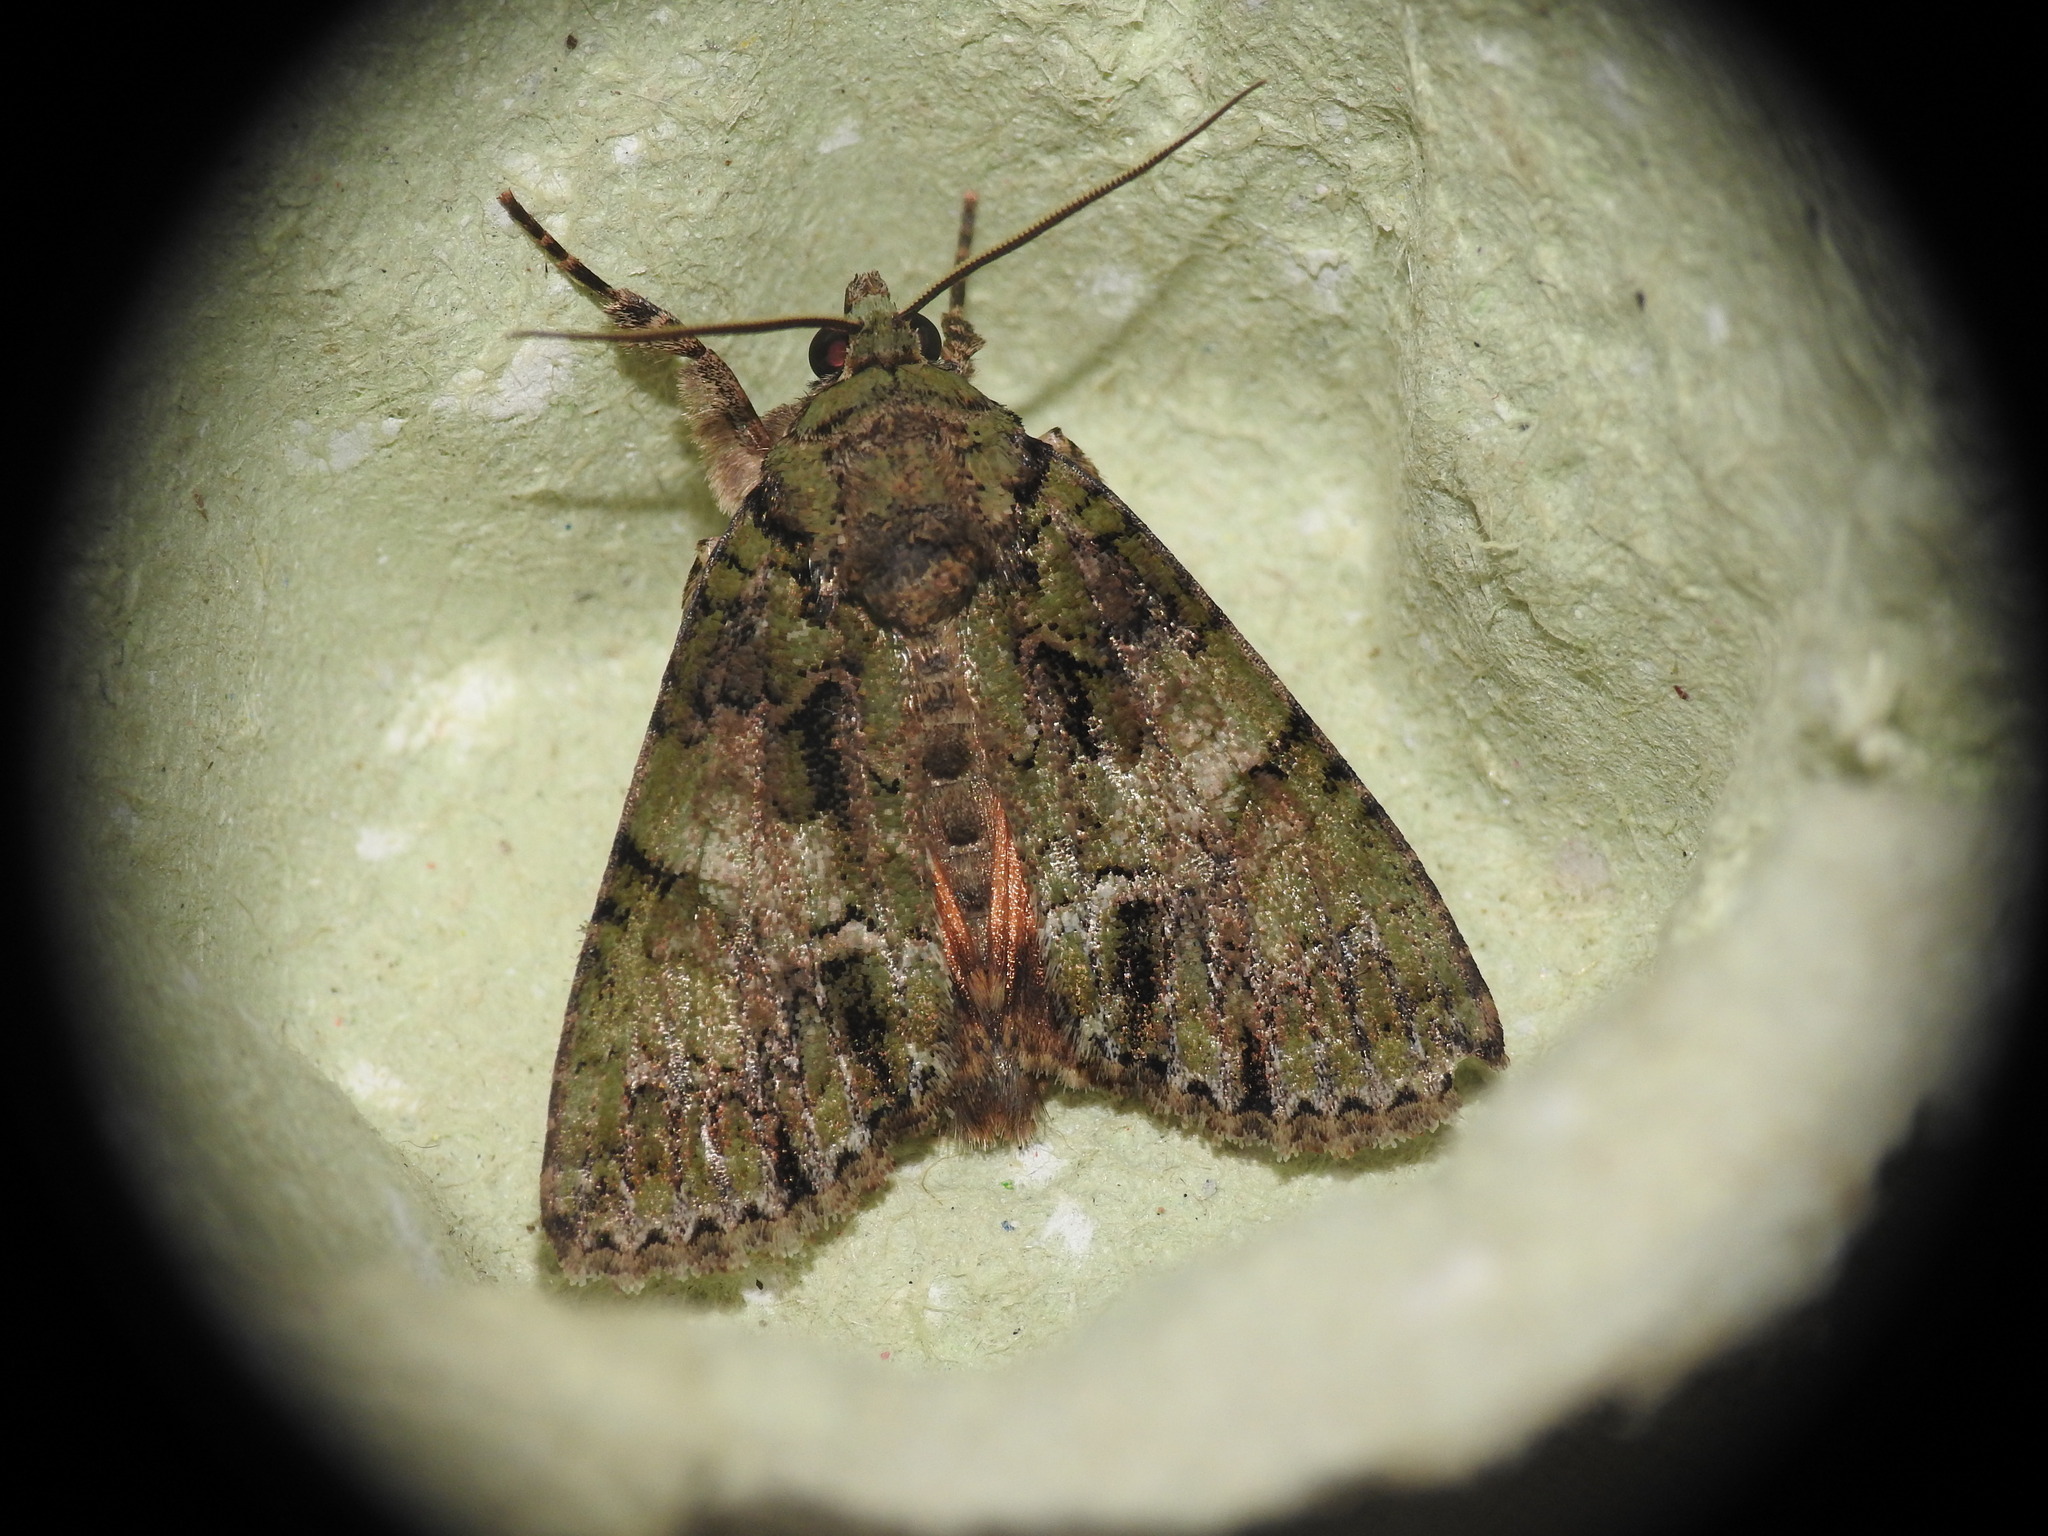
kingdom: Animalia
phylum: Arthropoda
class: Insecta
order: Lepidoptera
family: Noctuidae
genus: Polyphaenis
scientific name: Polyphaenis sericata
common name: Guernsey underwing
